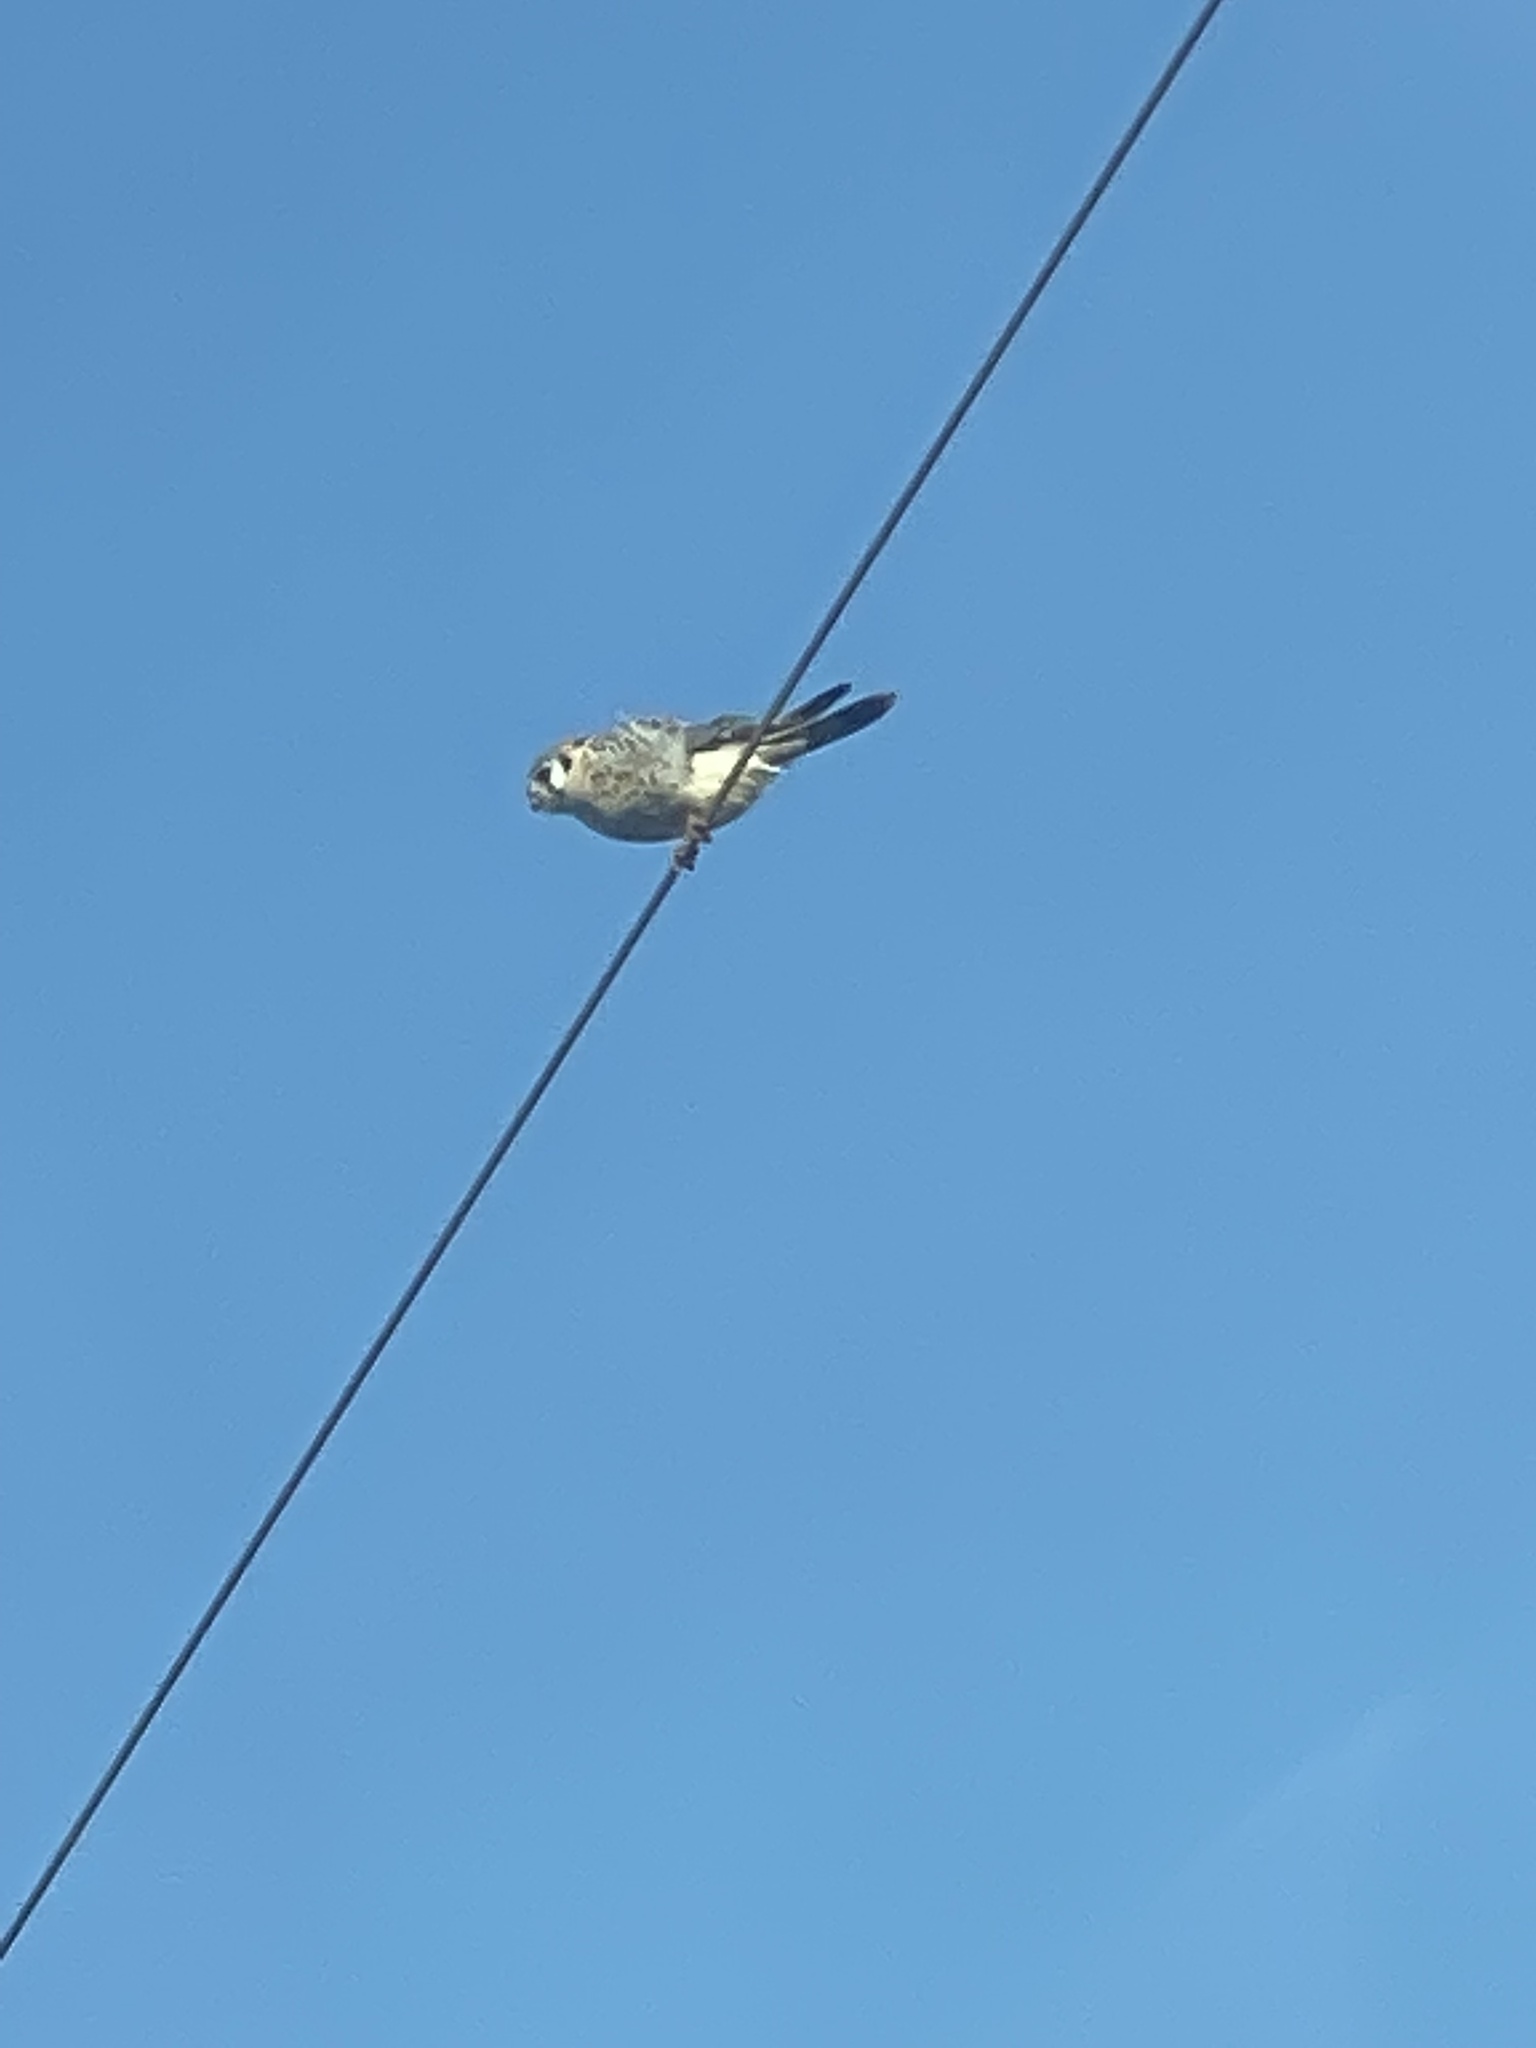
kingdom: Animalia
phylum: Chordata
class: Aves
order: Falconiformes
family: Falconidae
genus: Falco
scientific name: Falco sparverius
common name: American kestrel
